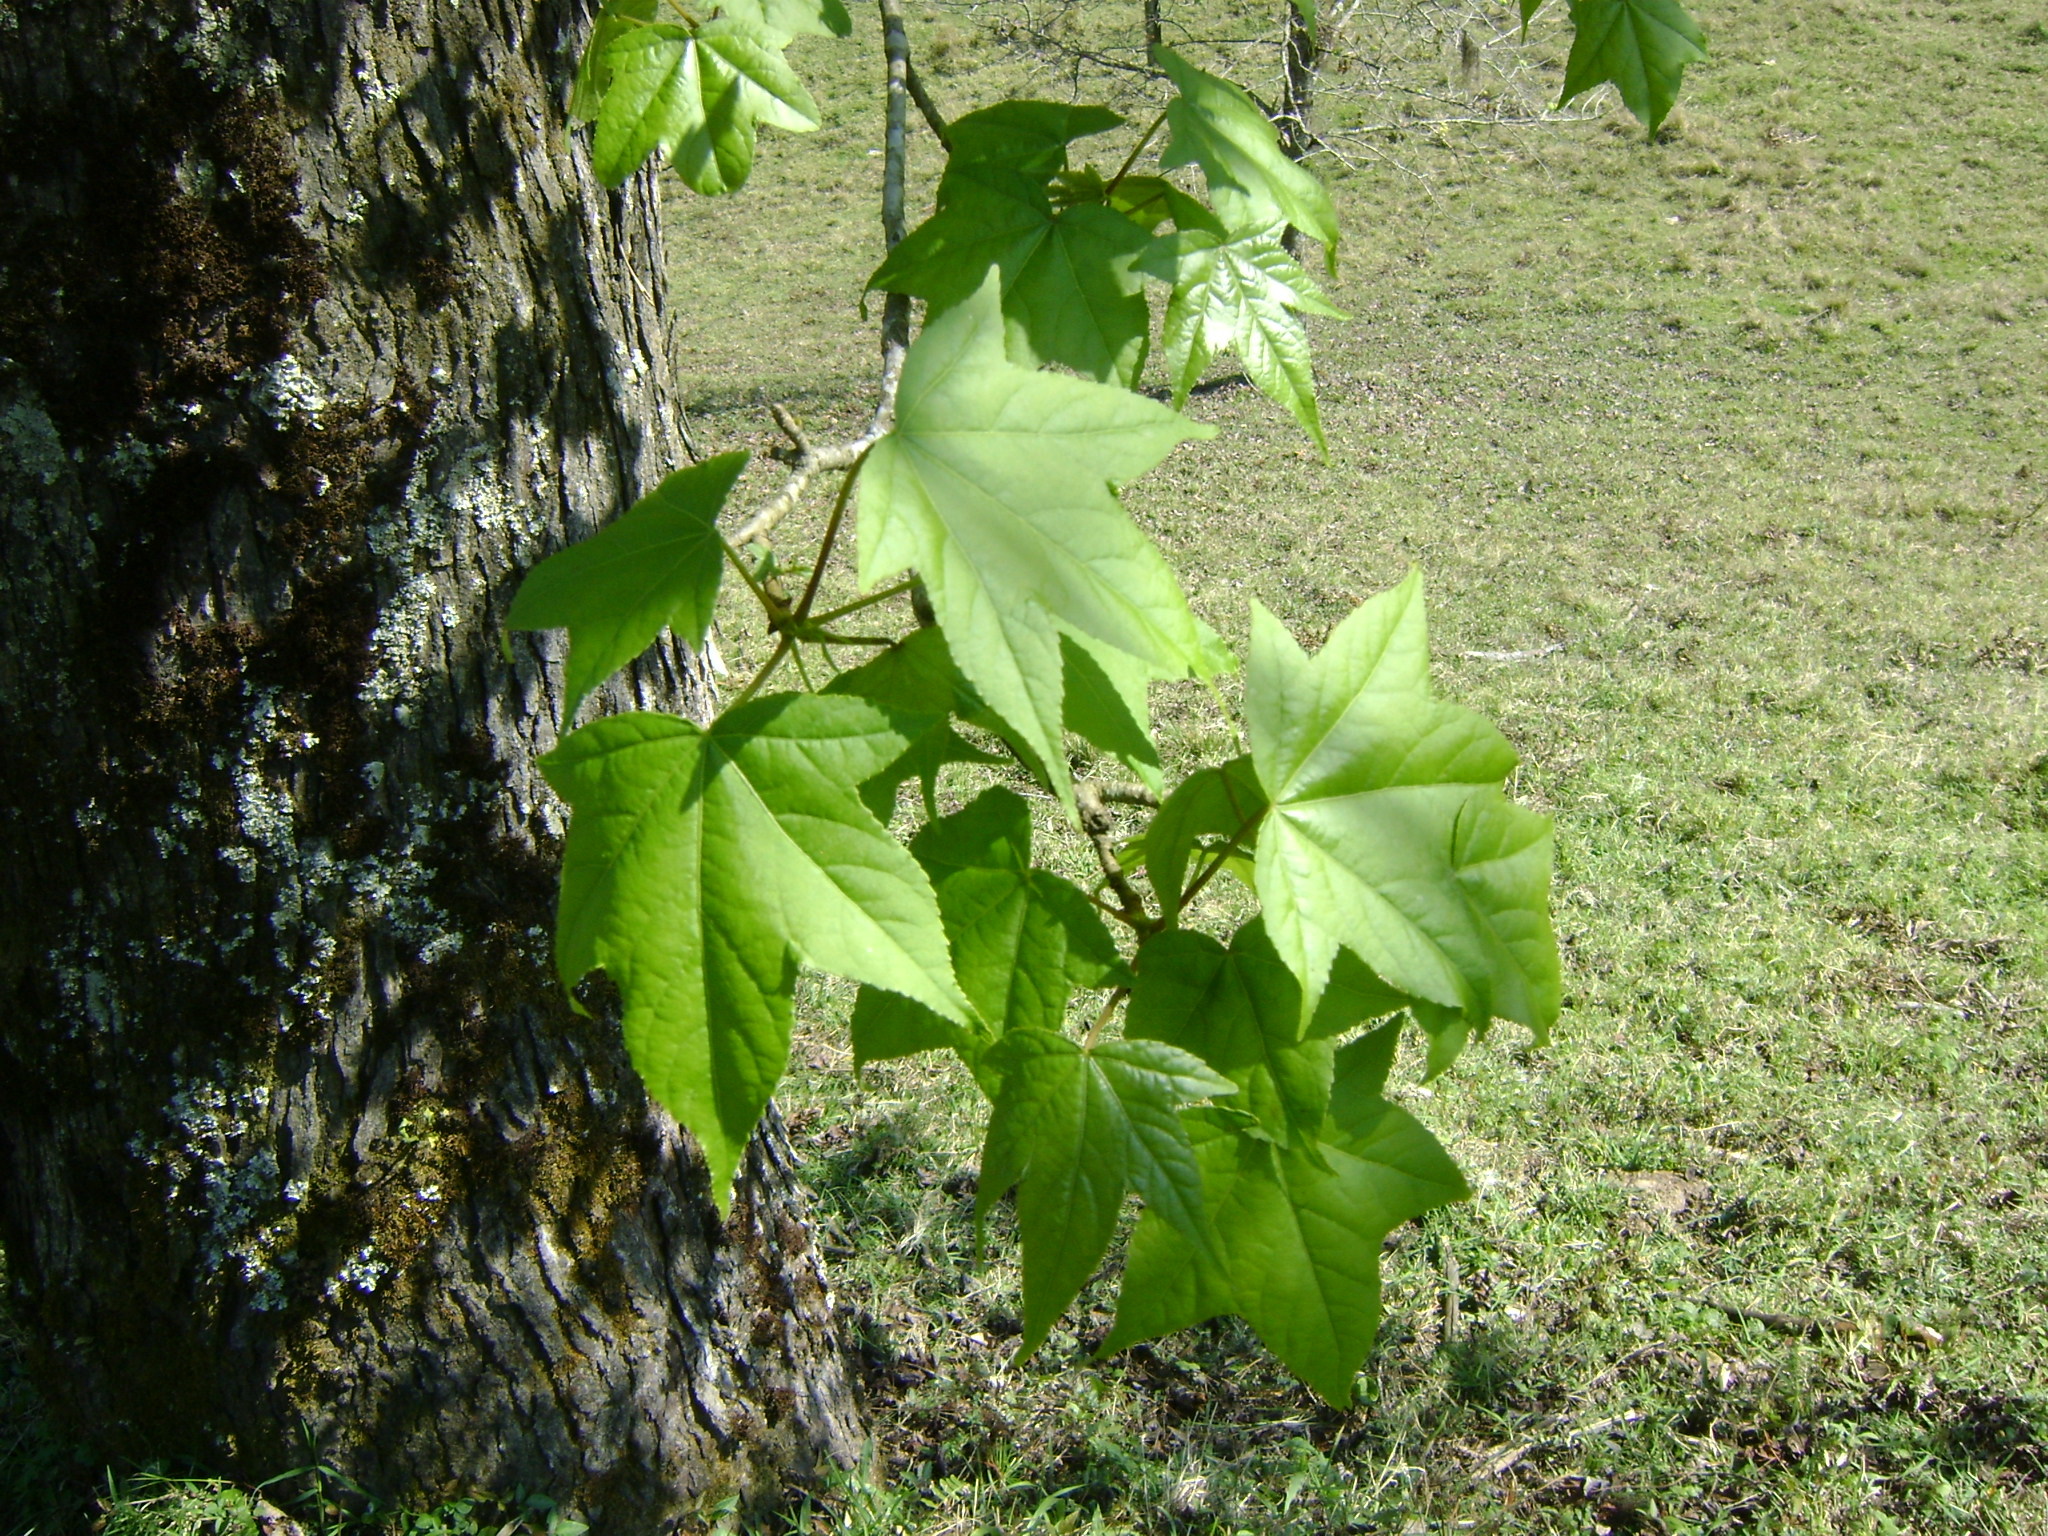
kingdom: Plantae
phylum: Tracheophyta
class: Magnoliopsida
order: Saxifragales
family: Altingiaceae
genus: Liquidambar
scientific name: Liquidambar styraciflua
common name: Sweet gum
